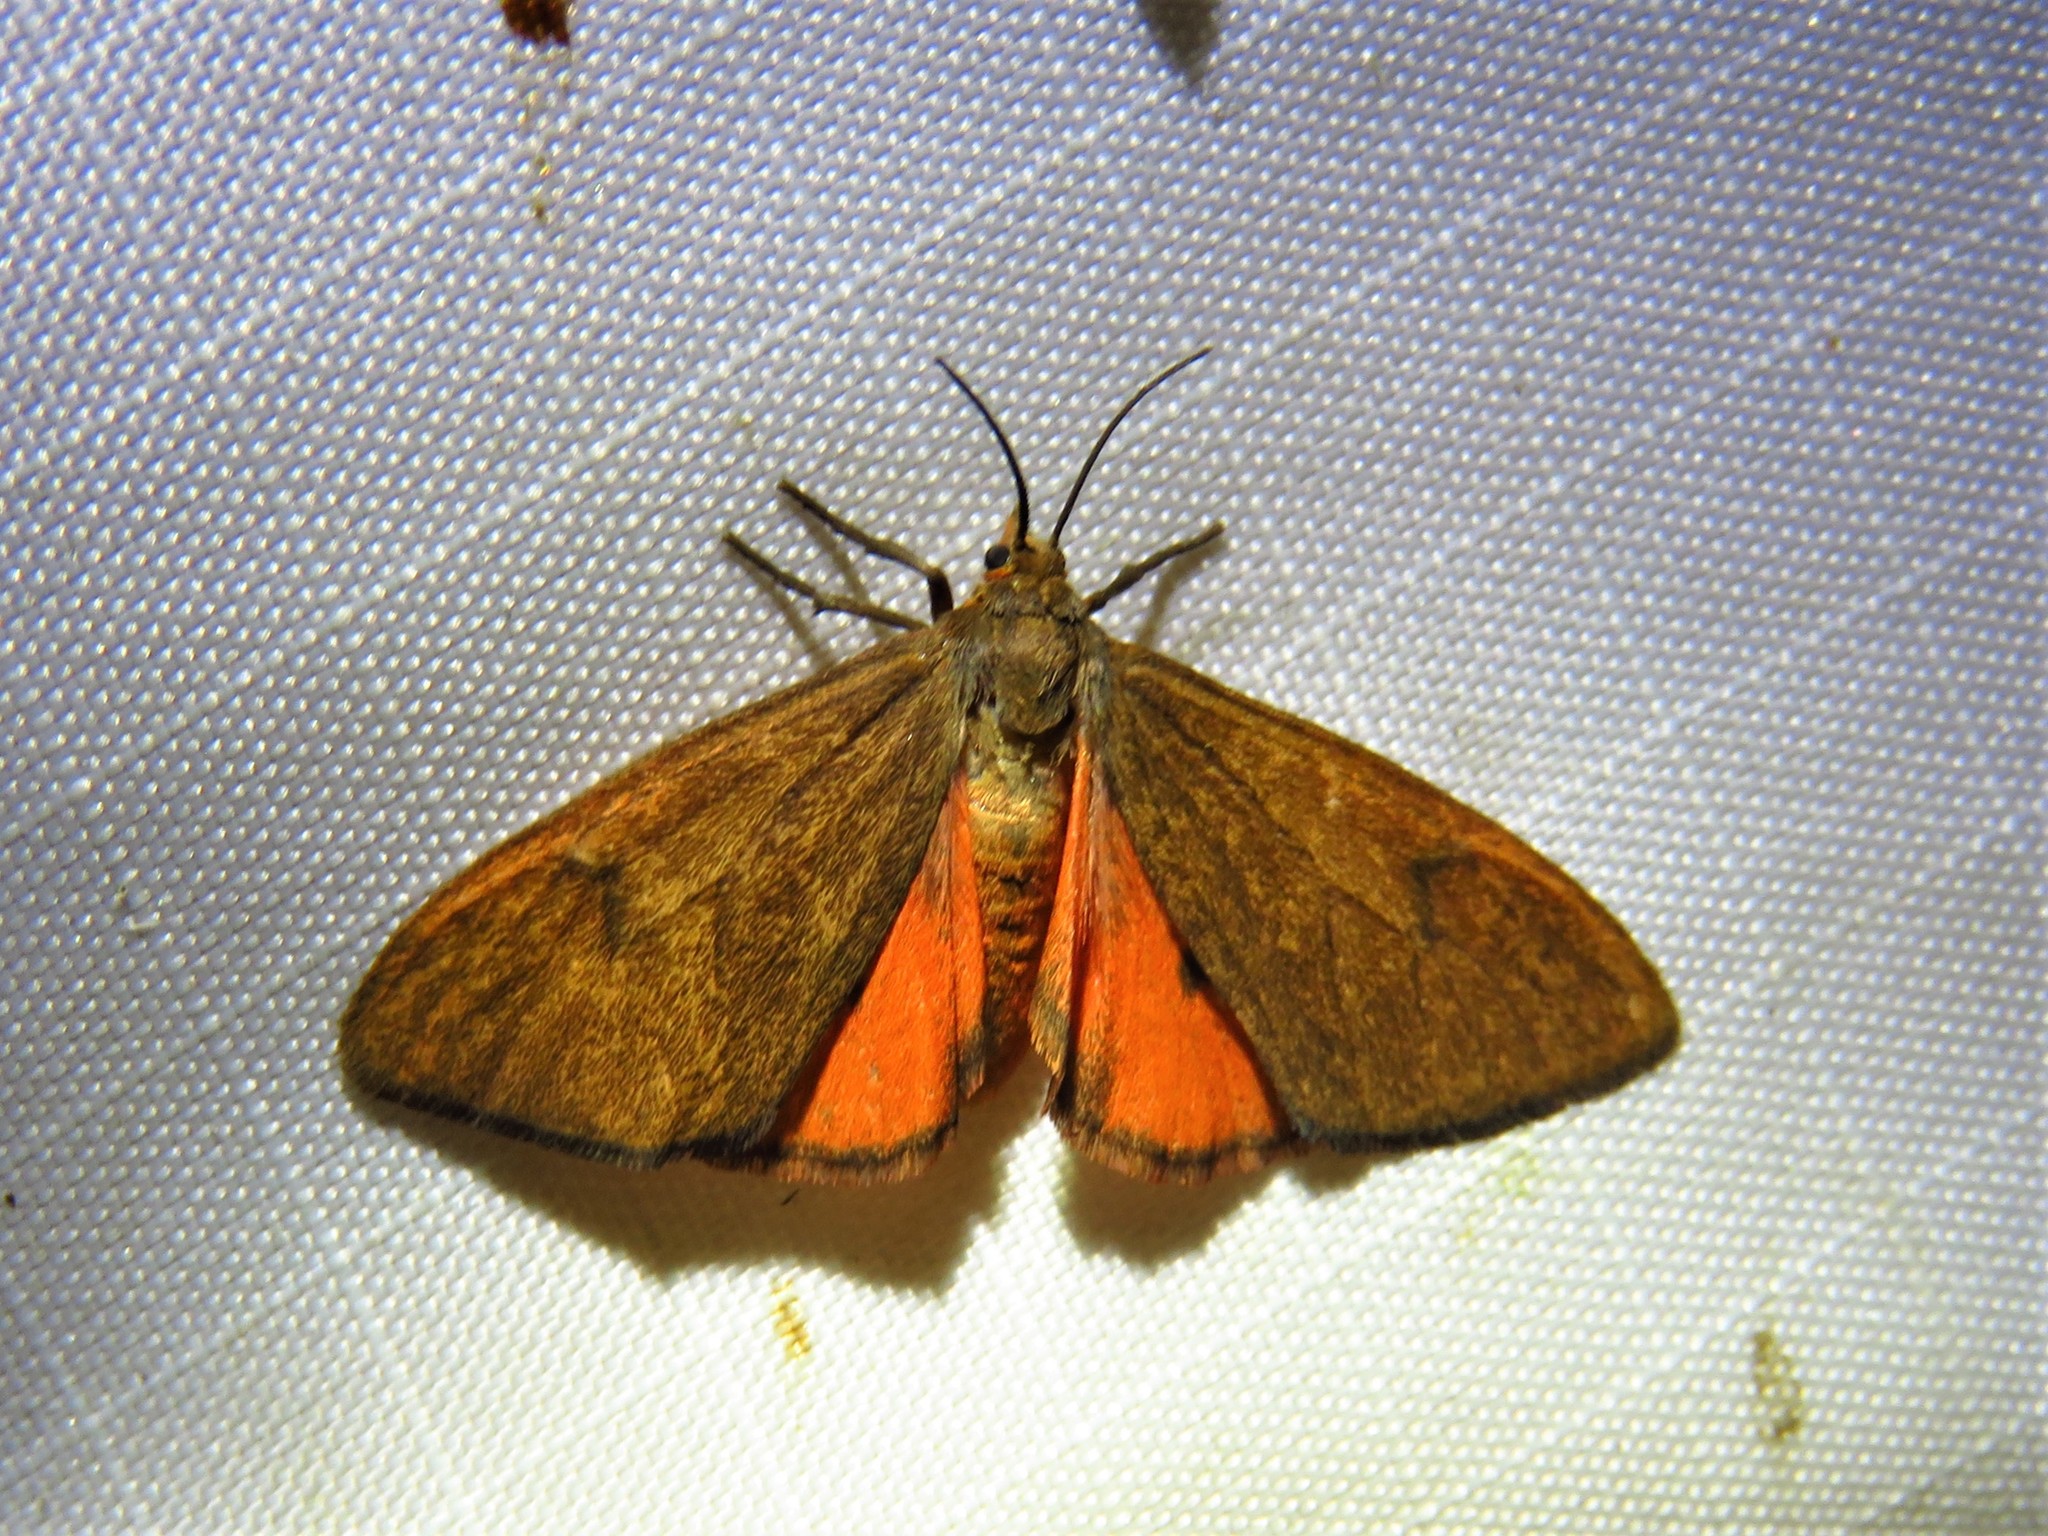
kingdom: Animalia
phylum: Arthropoda
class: Insecta
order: Lepidoptera
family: Erebidae
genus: Virbia
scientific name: Virbia opella
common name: Tawny virbia moth
